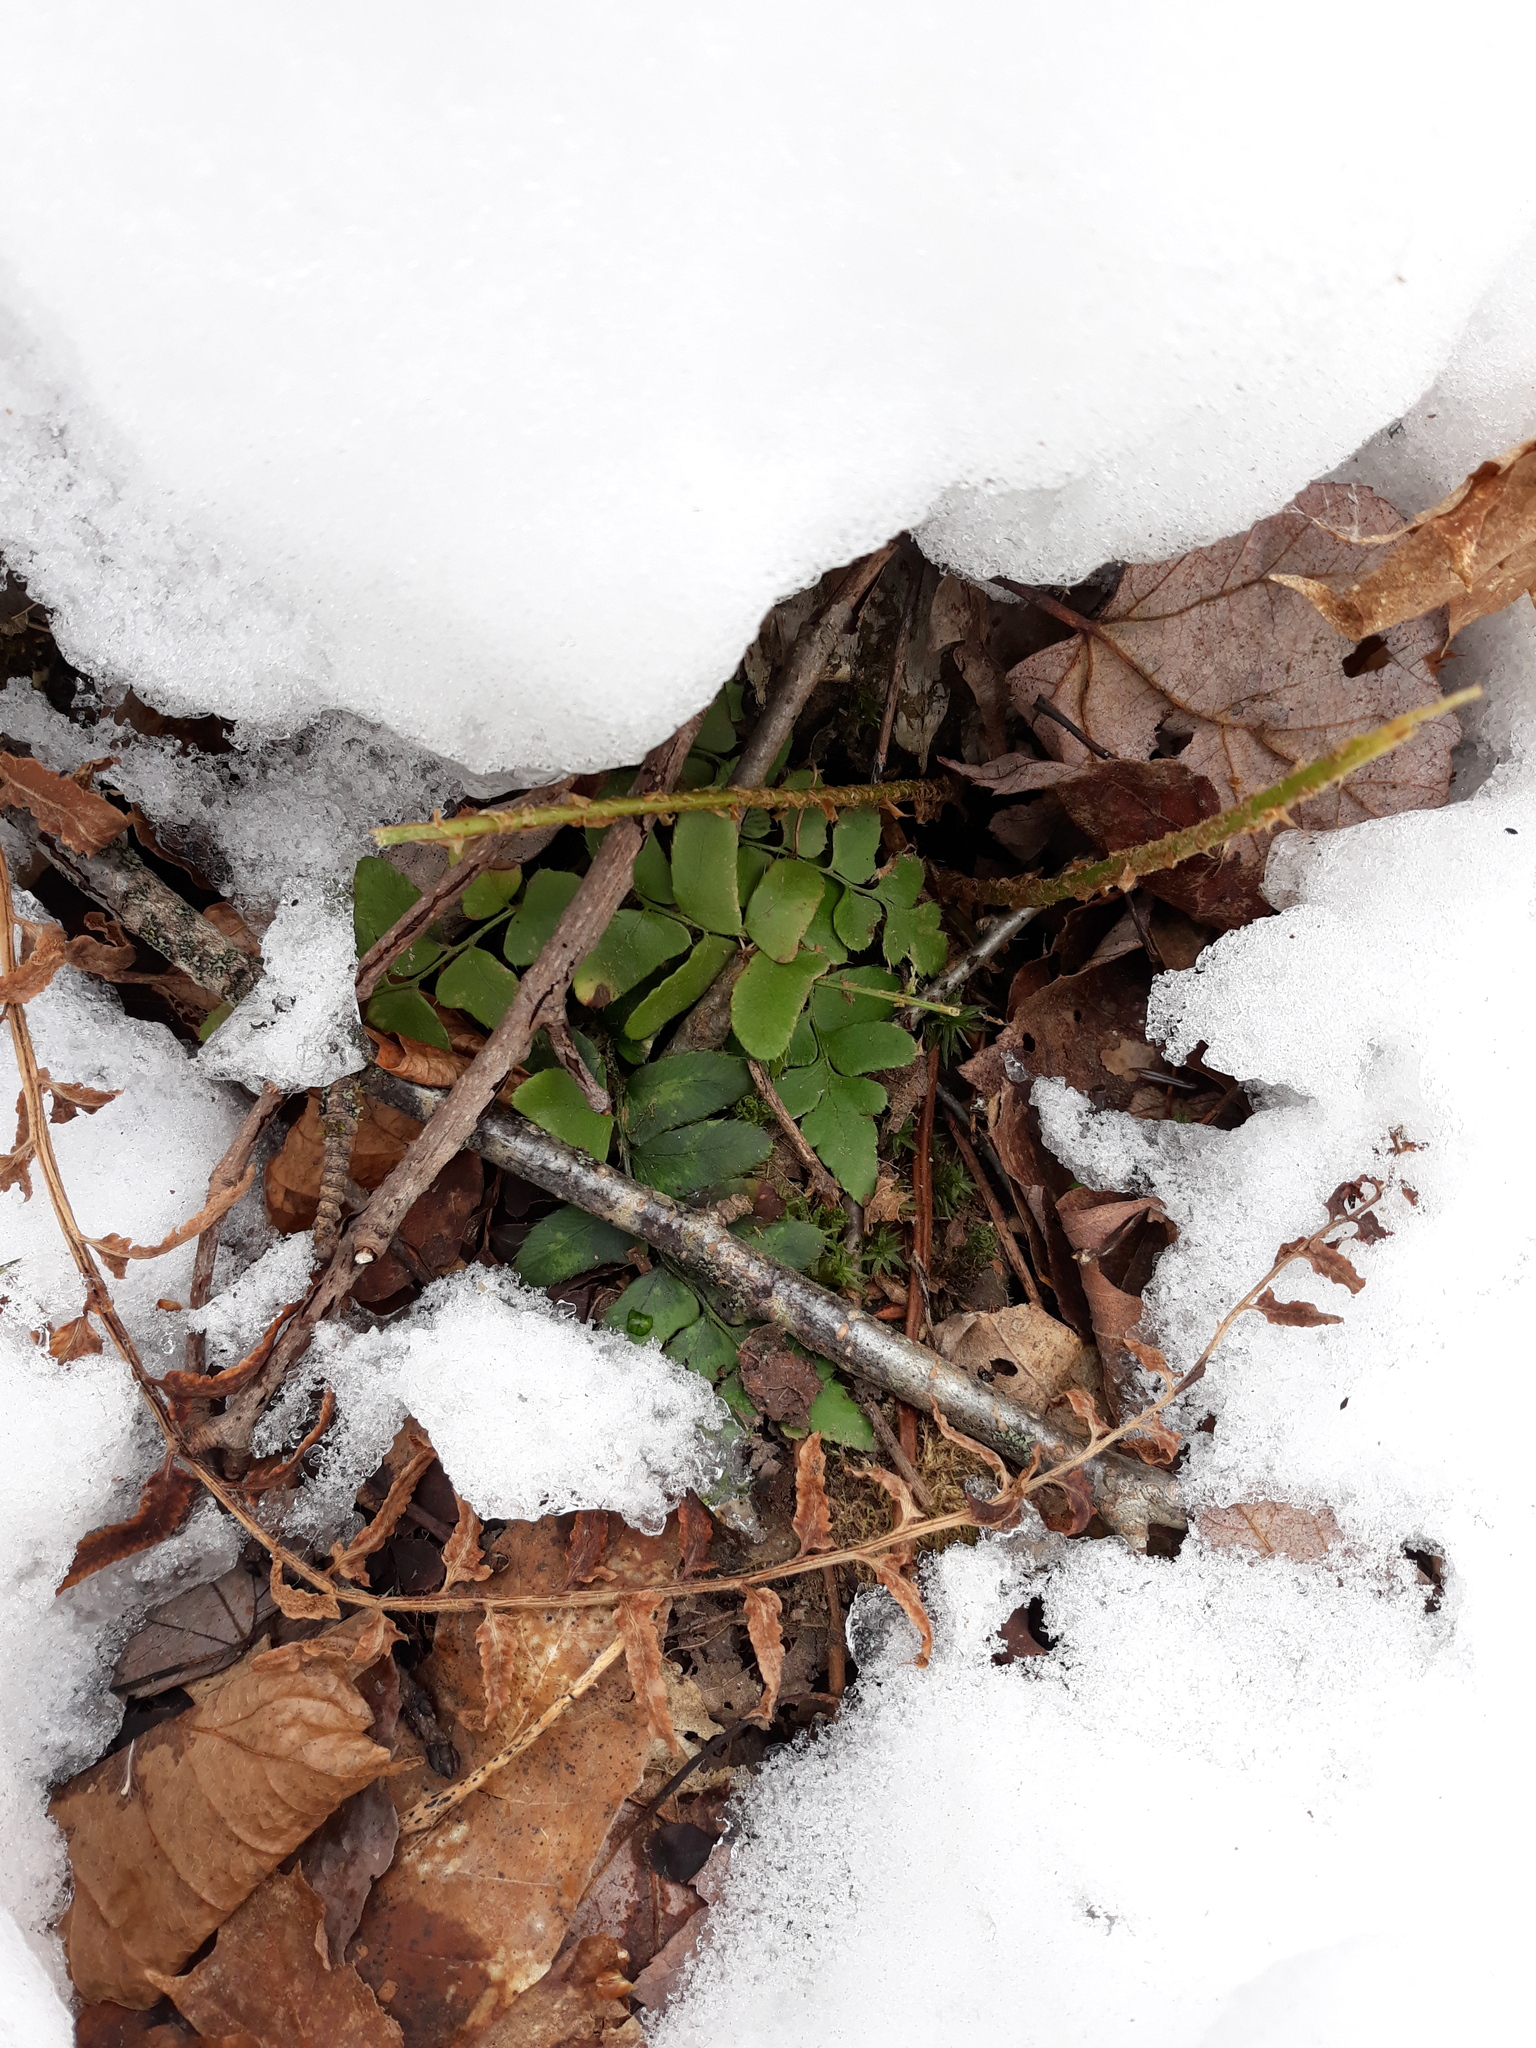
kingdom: Plantae
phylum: Tracheophyta
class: Polypodiopsida
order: Polypodiales
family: Dryopteridaceae
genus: Polystichum
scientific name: Polystichum acrostichoides
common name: Christmas fern
